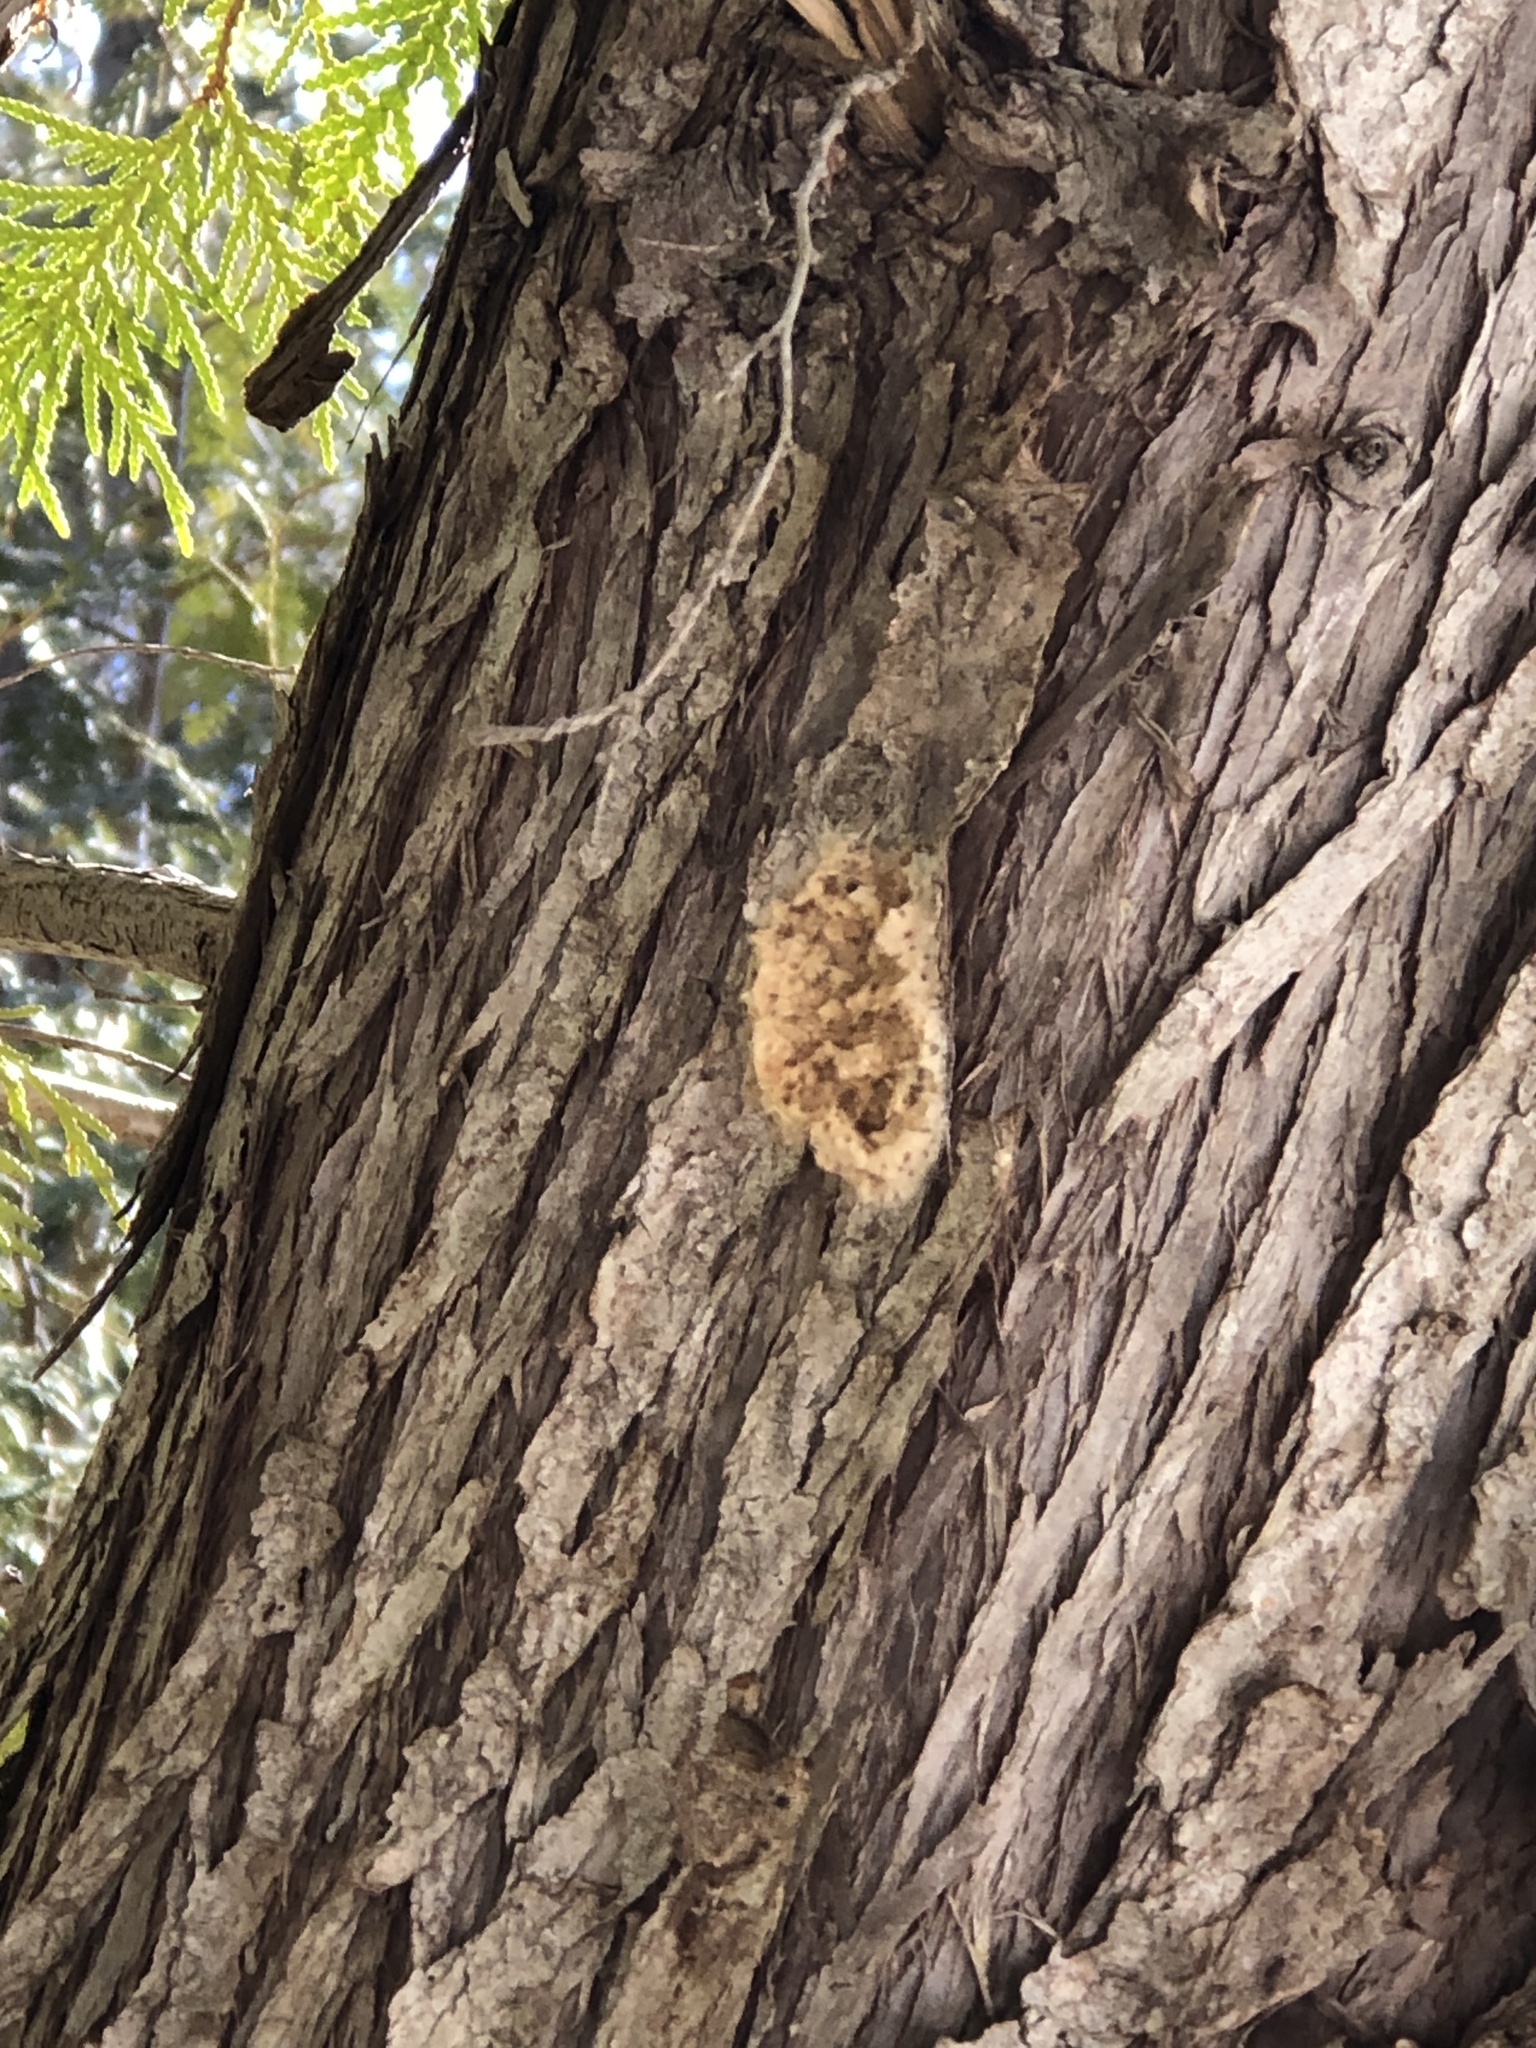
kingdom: Animalia
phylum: Arthropoda
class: Insecta
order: Lepidoptera
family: Erebidae
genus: Lymantria
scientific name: Lymantria dispar
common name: Gypsy moth
